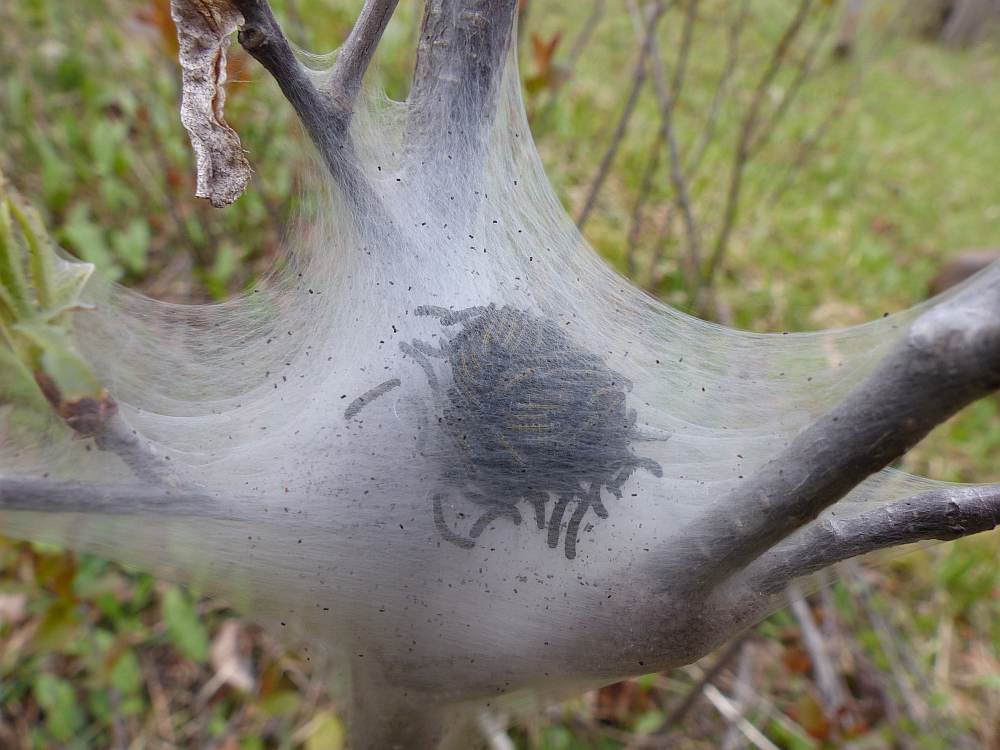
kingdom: Animalia
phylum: Arthropoda
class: Insecta
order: Lepidoptera
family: Lasiocampidae
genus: Malacosoma
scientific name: Malacosoma americana
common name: Eastern tent caterpillar moth
